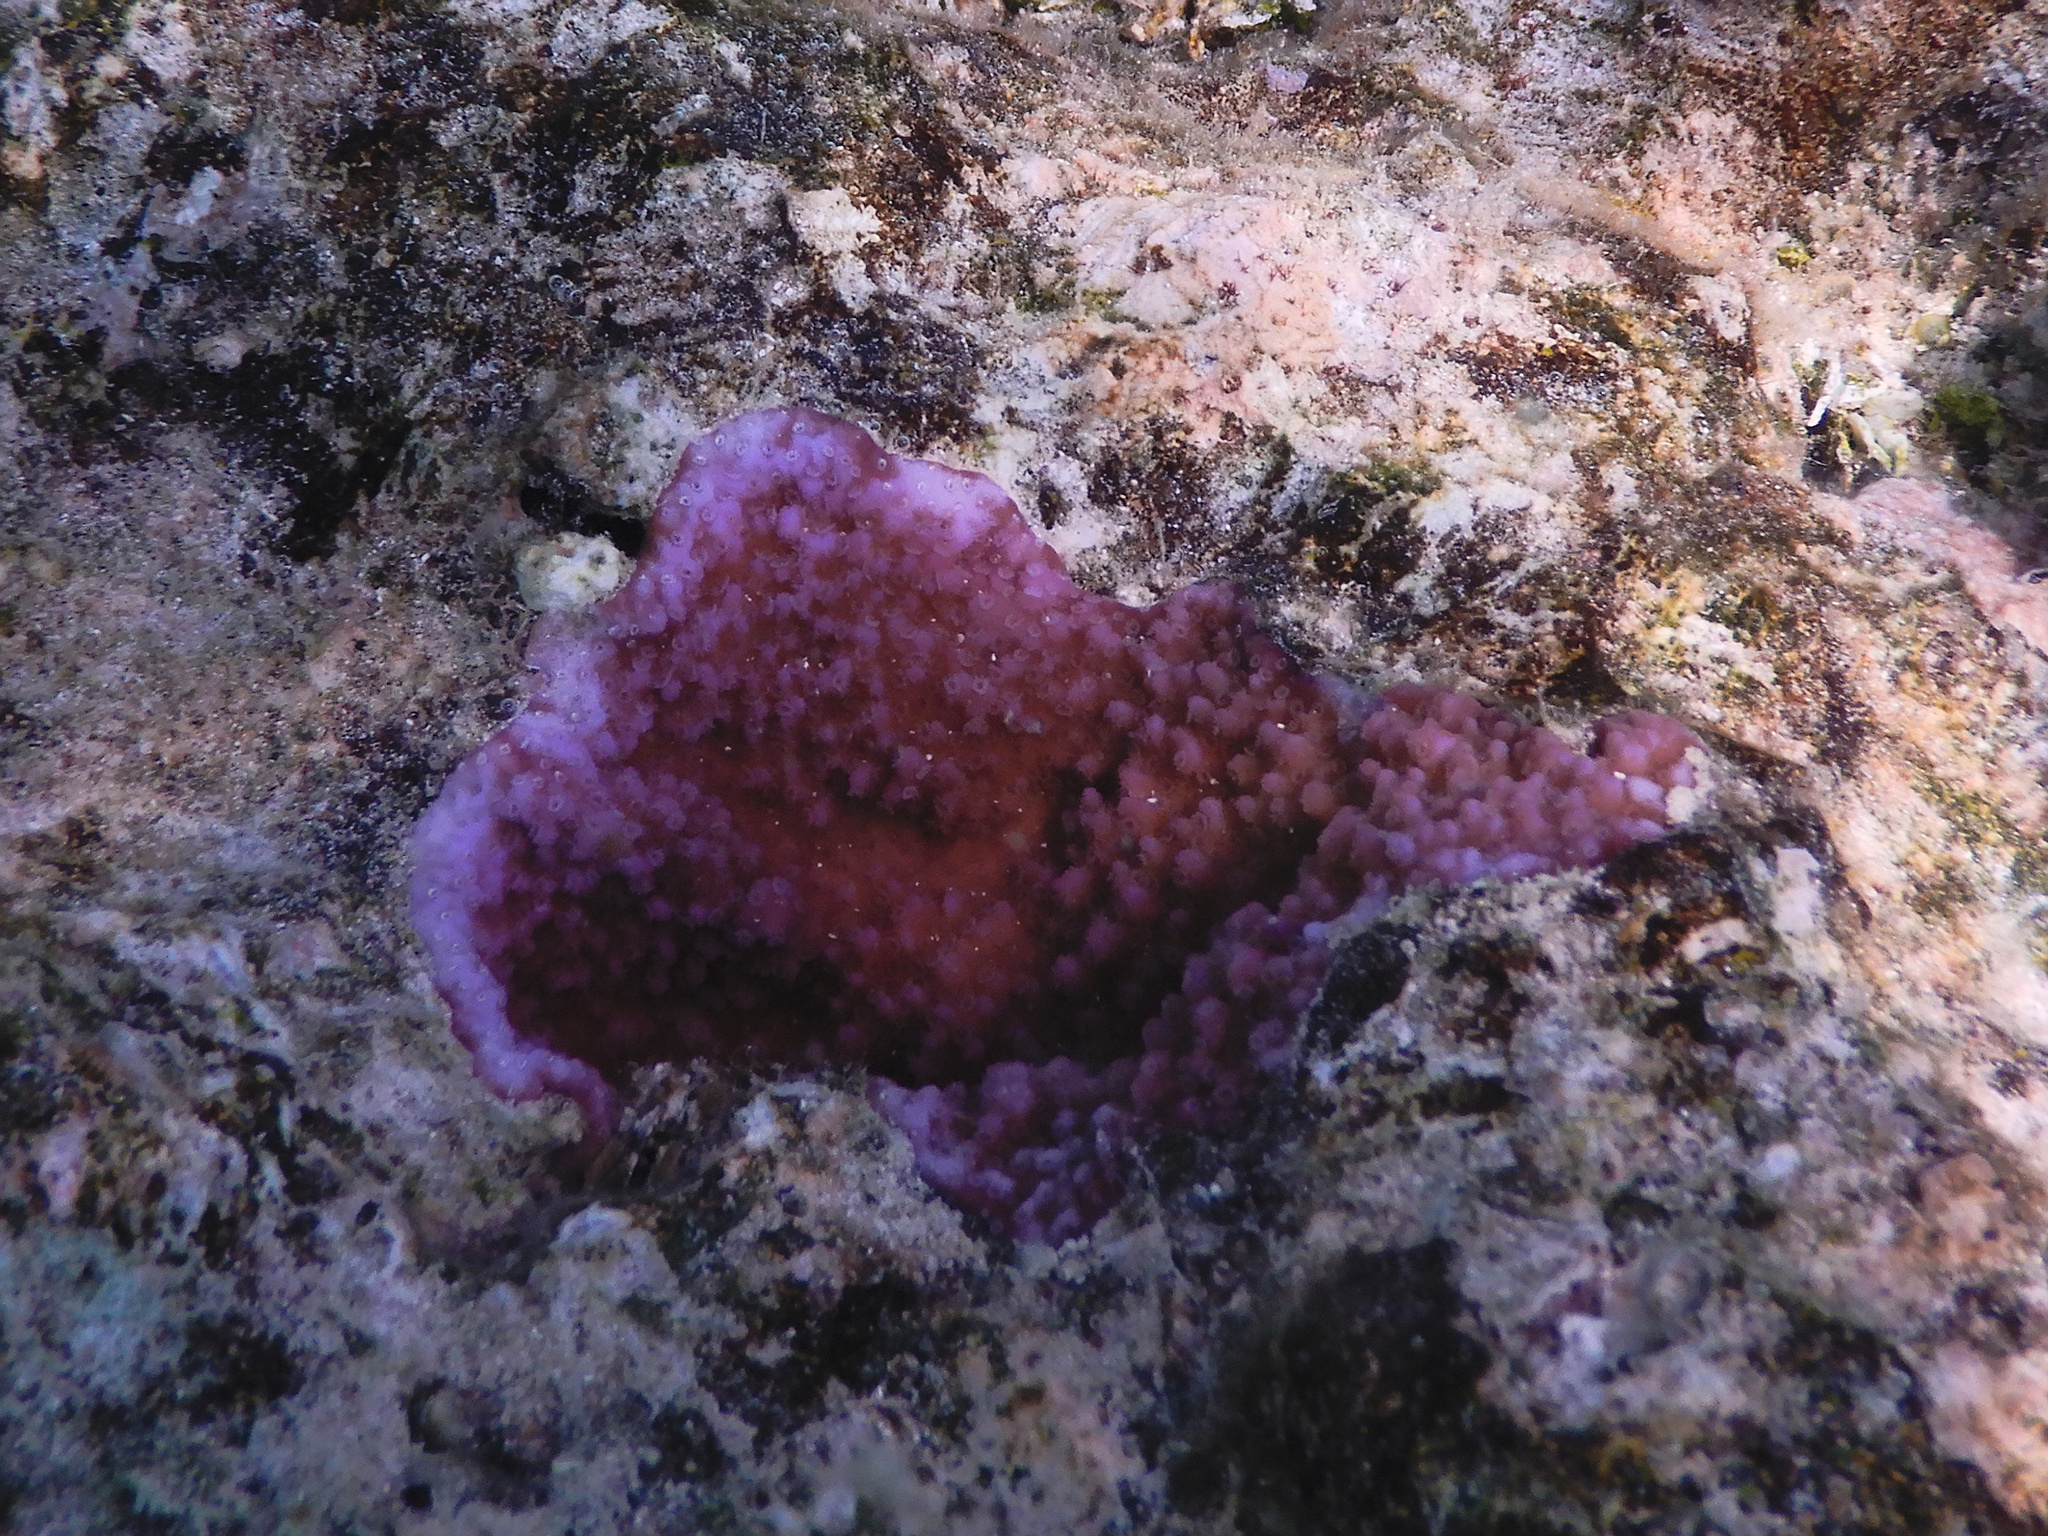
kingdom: Animalia
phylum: Cnidaria
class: Anthozoa
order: Scleractinia
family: Acroporidae
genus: Montipora
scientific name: Montipora flabellata
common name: Pore coral
